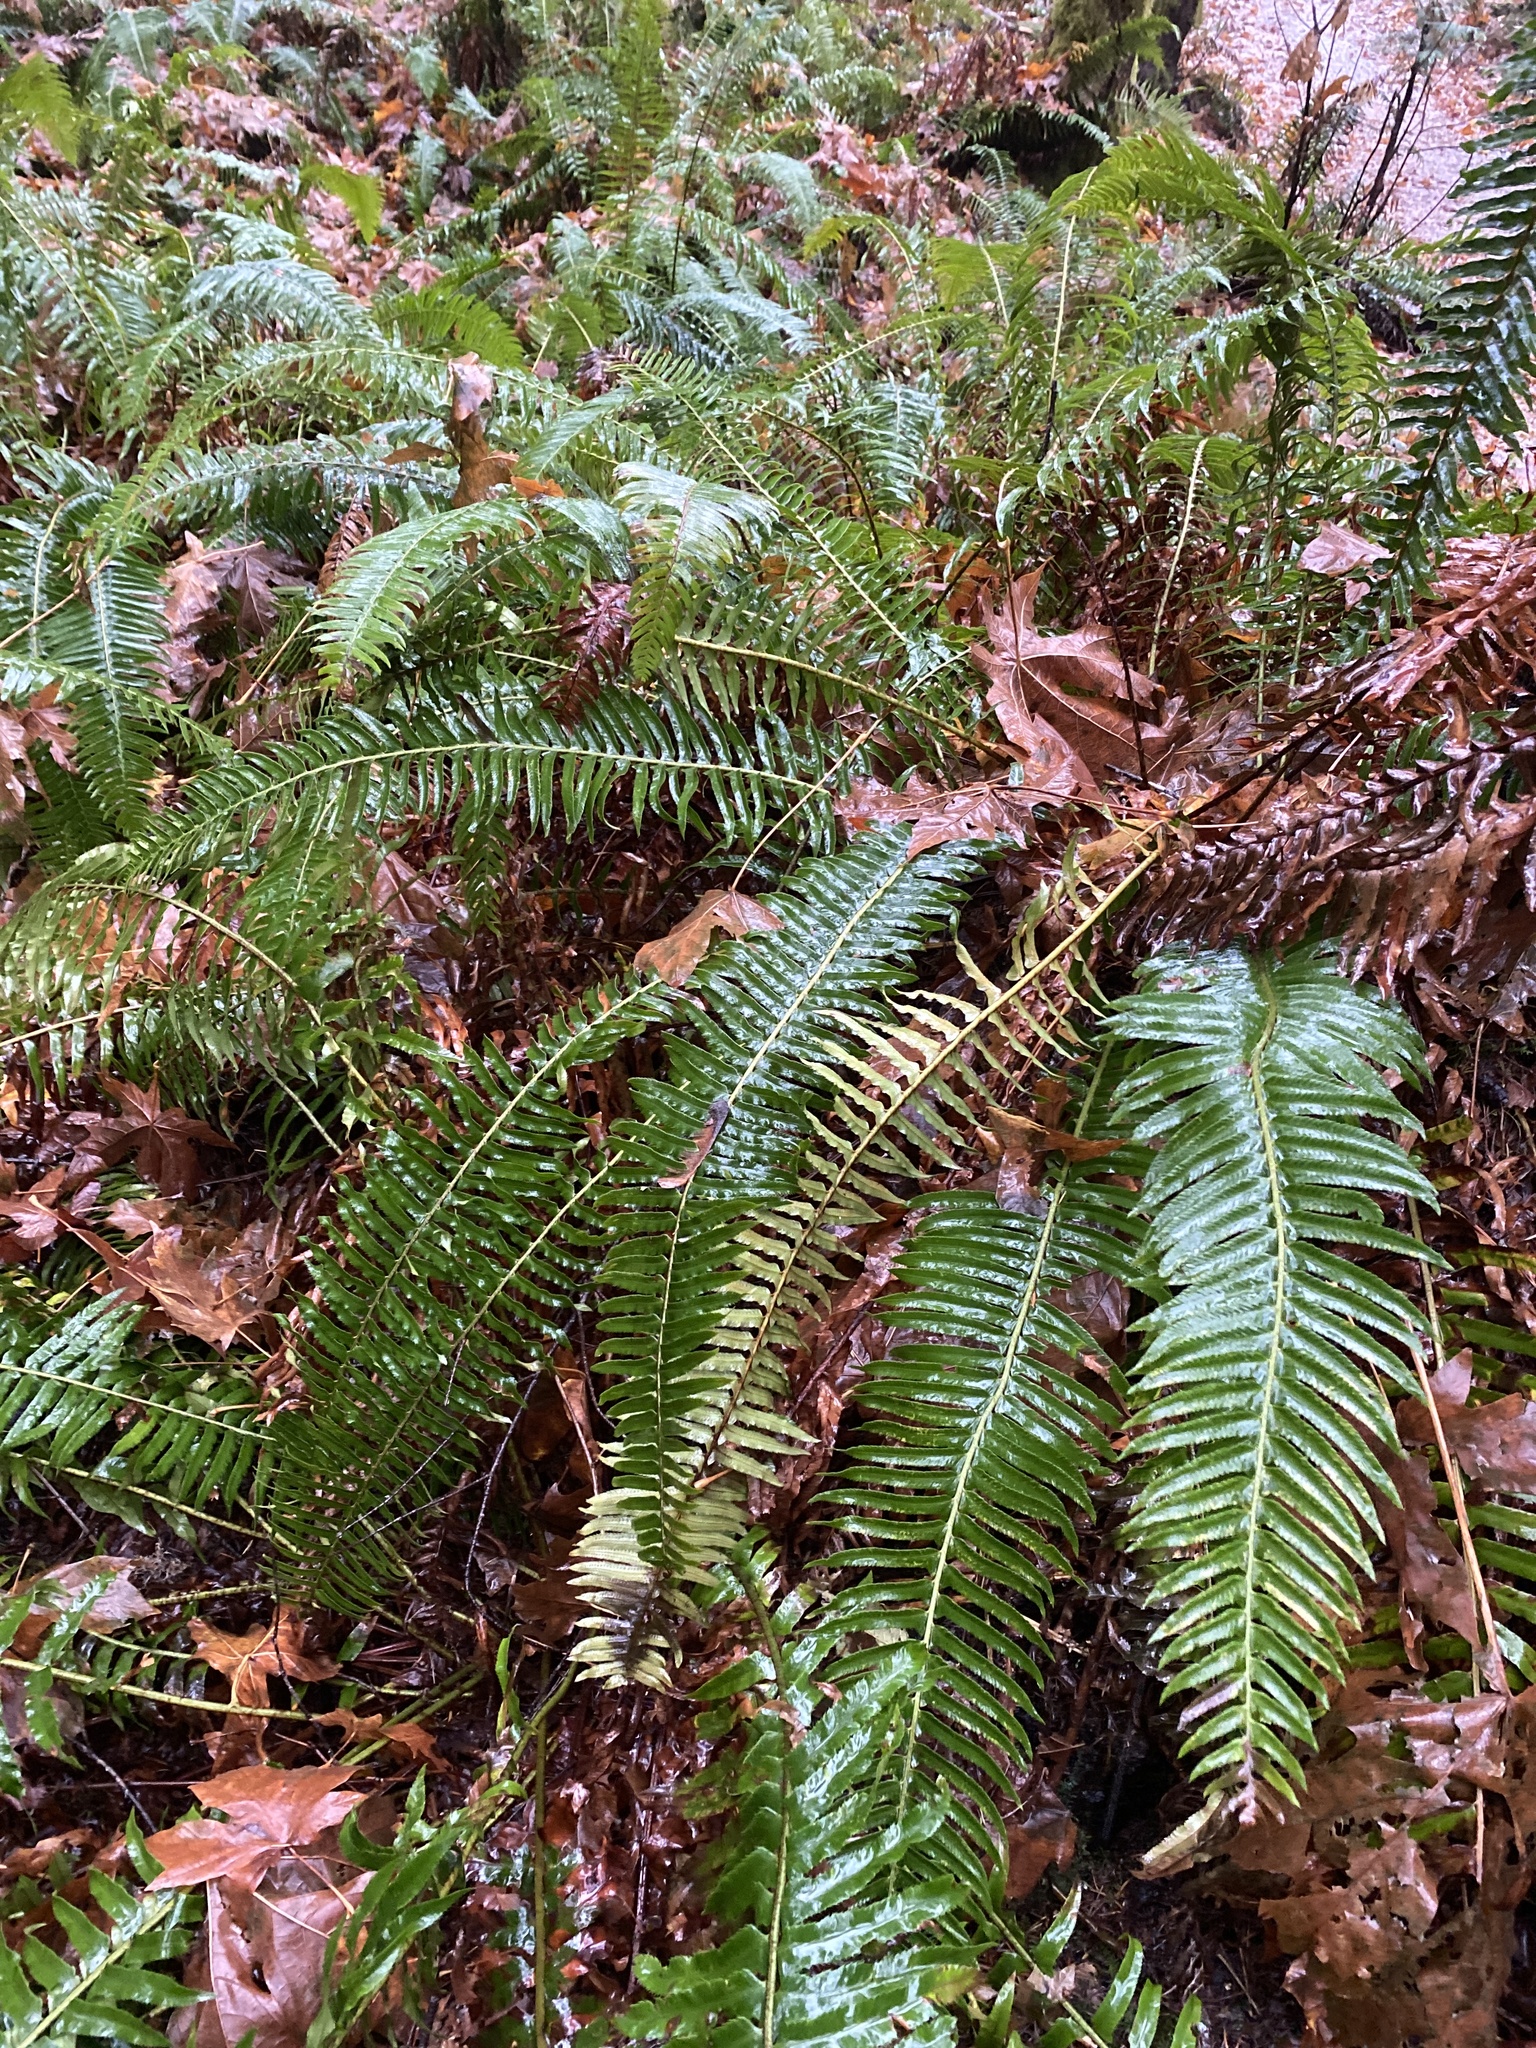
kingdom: Plantae
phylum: Tracheophyta
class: Polypodiopsida
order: Polypodiales
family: Dryopteridaceae
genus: Polystichum
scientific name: Polystichum munitum
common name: Western sword-fern
